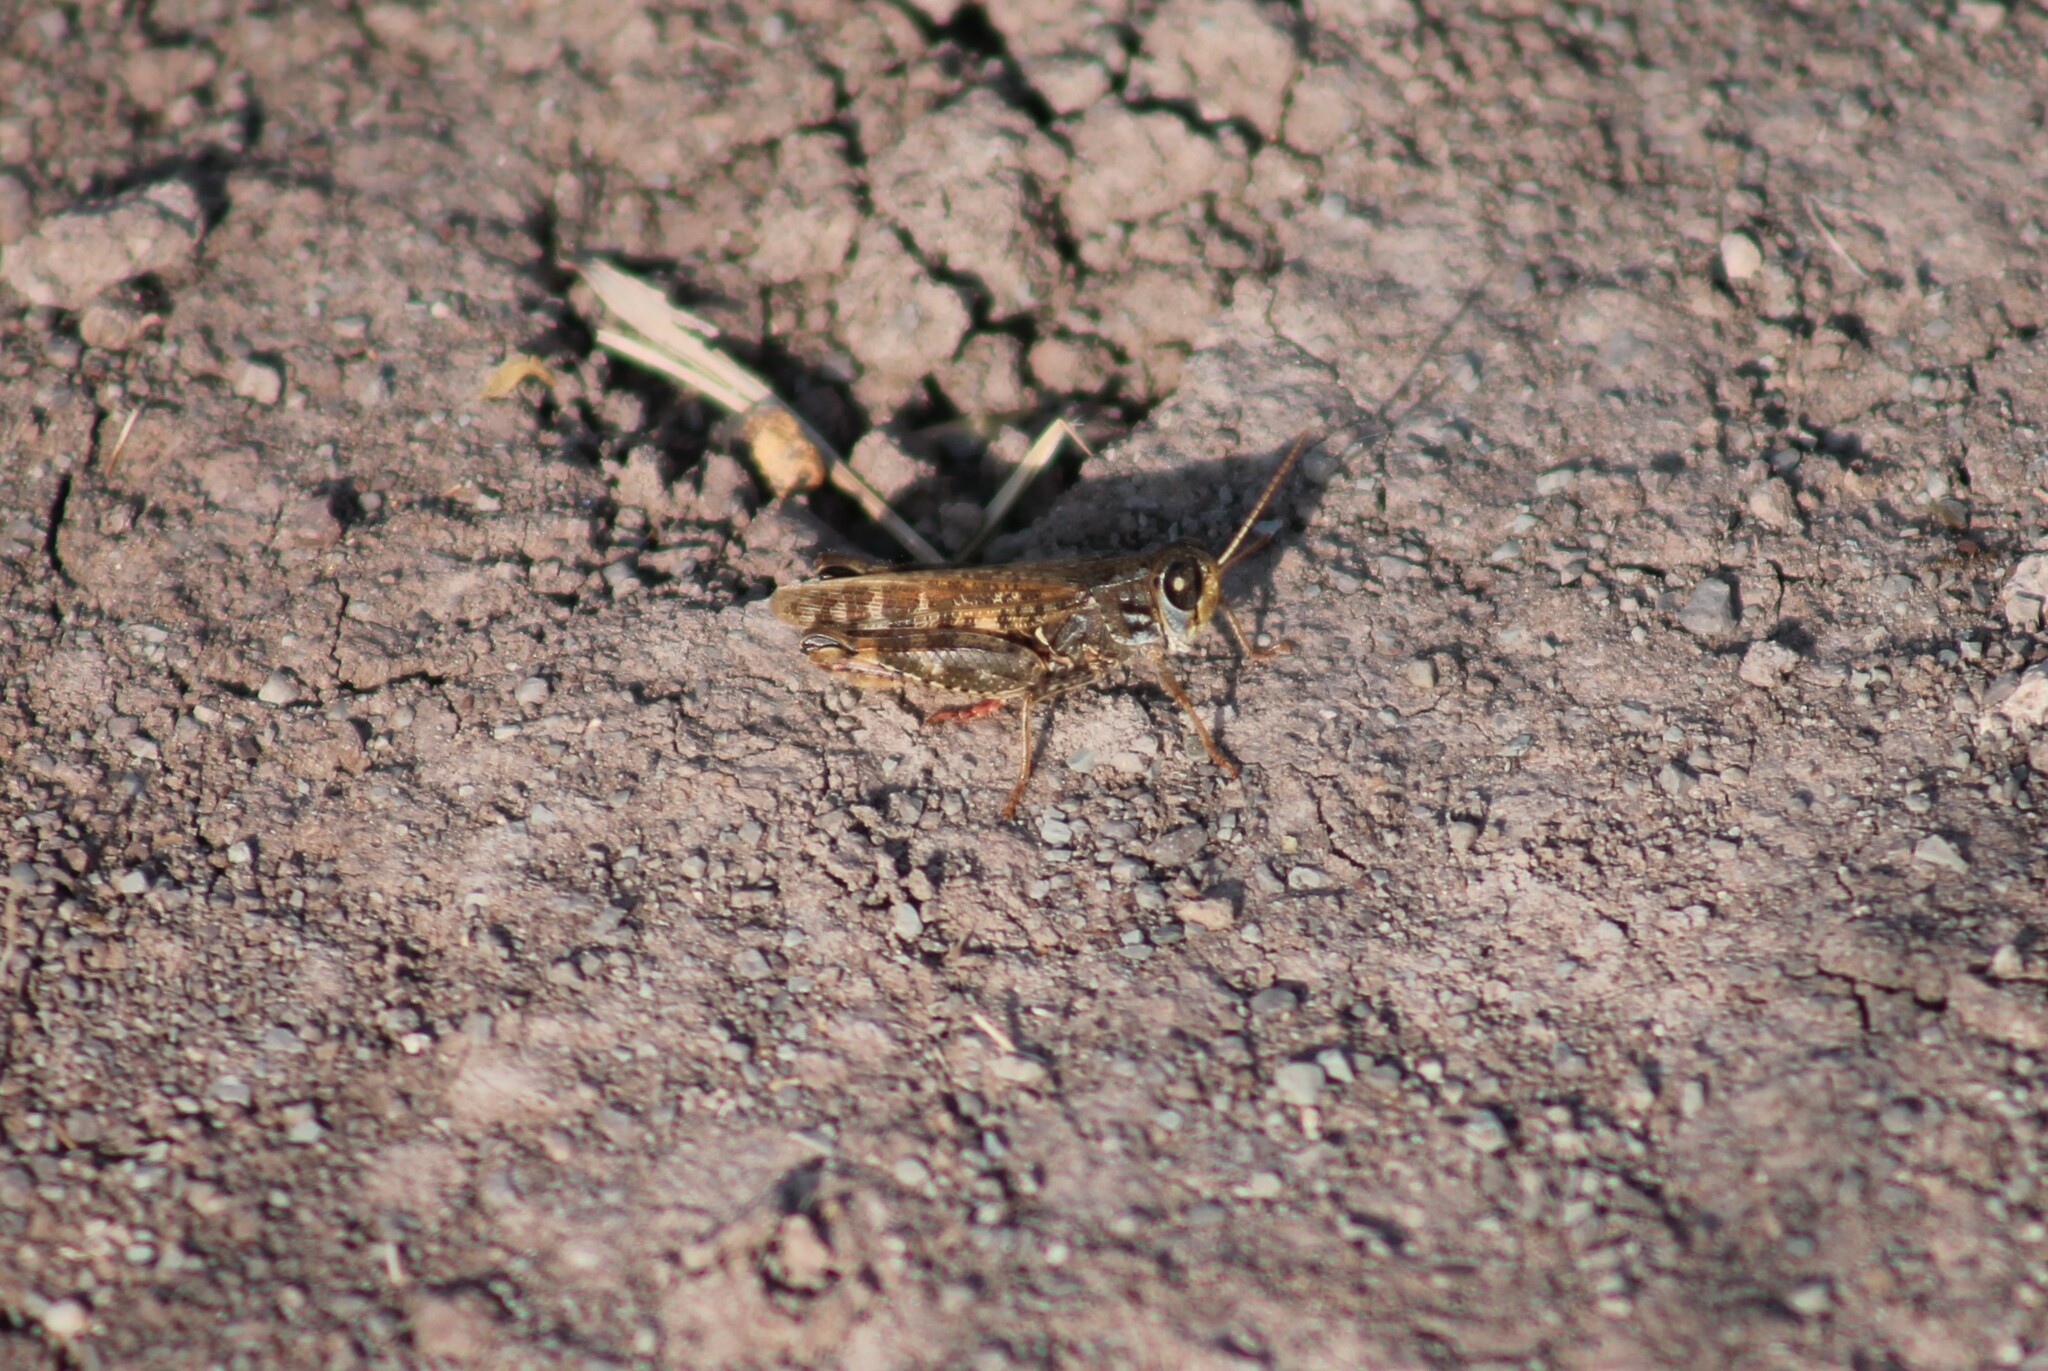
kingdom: Animalia
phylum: Arthropoda
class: Insecta
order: Orthoptera
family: Acrididae
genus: Calliptamus
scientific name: Calliptamus italicus
